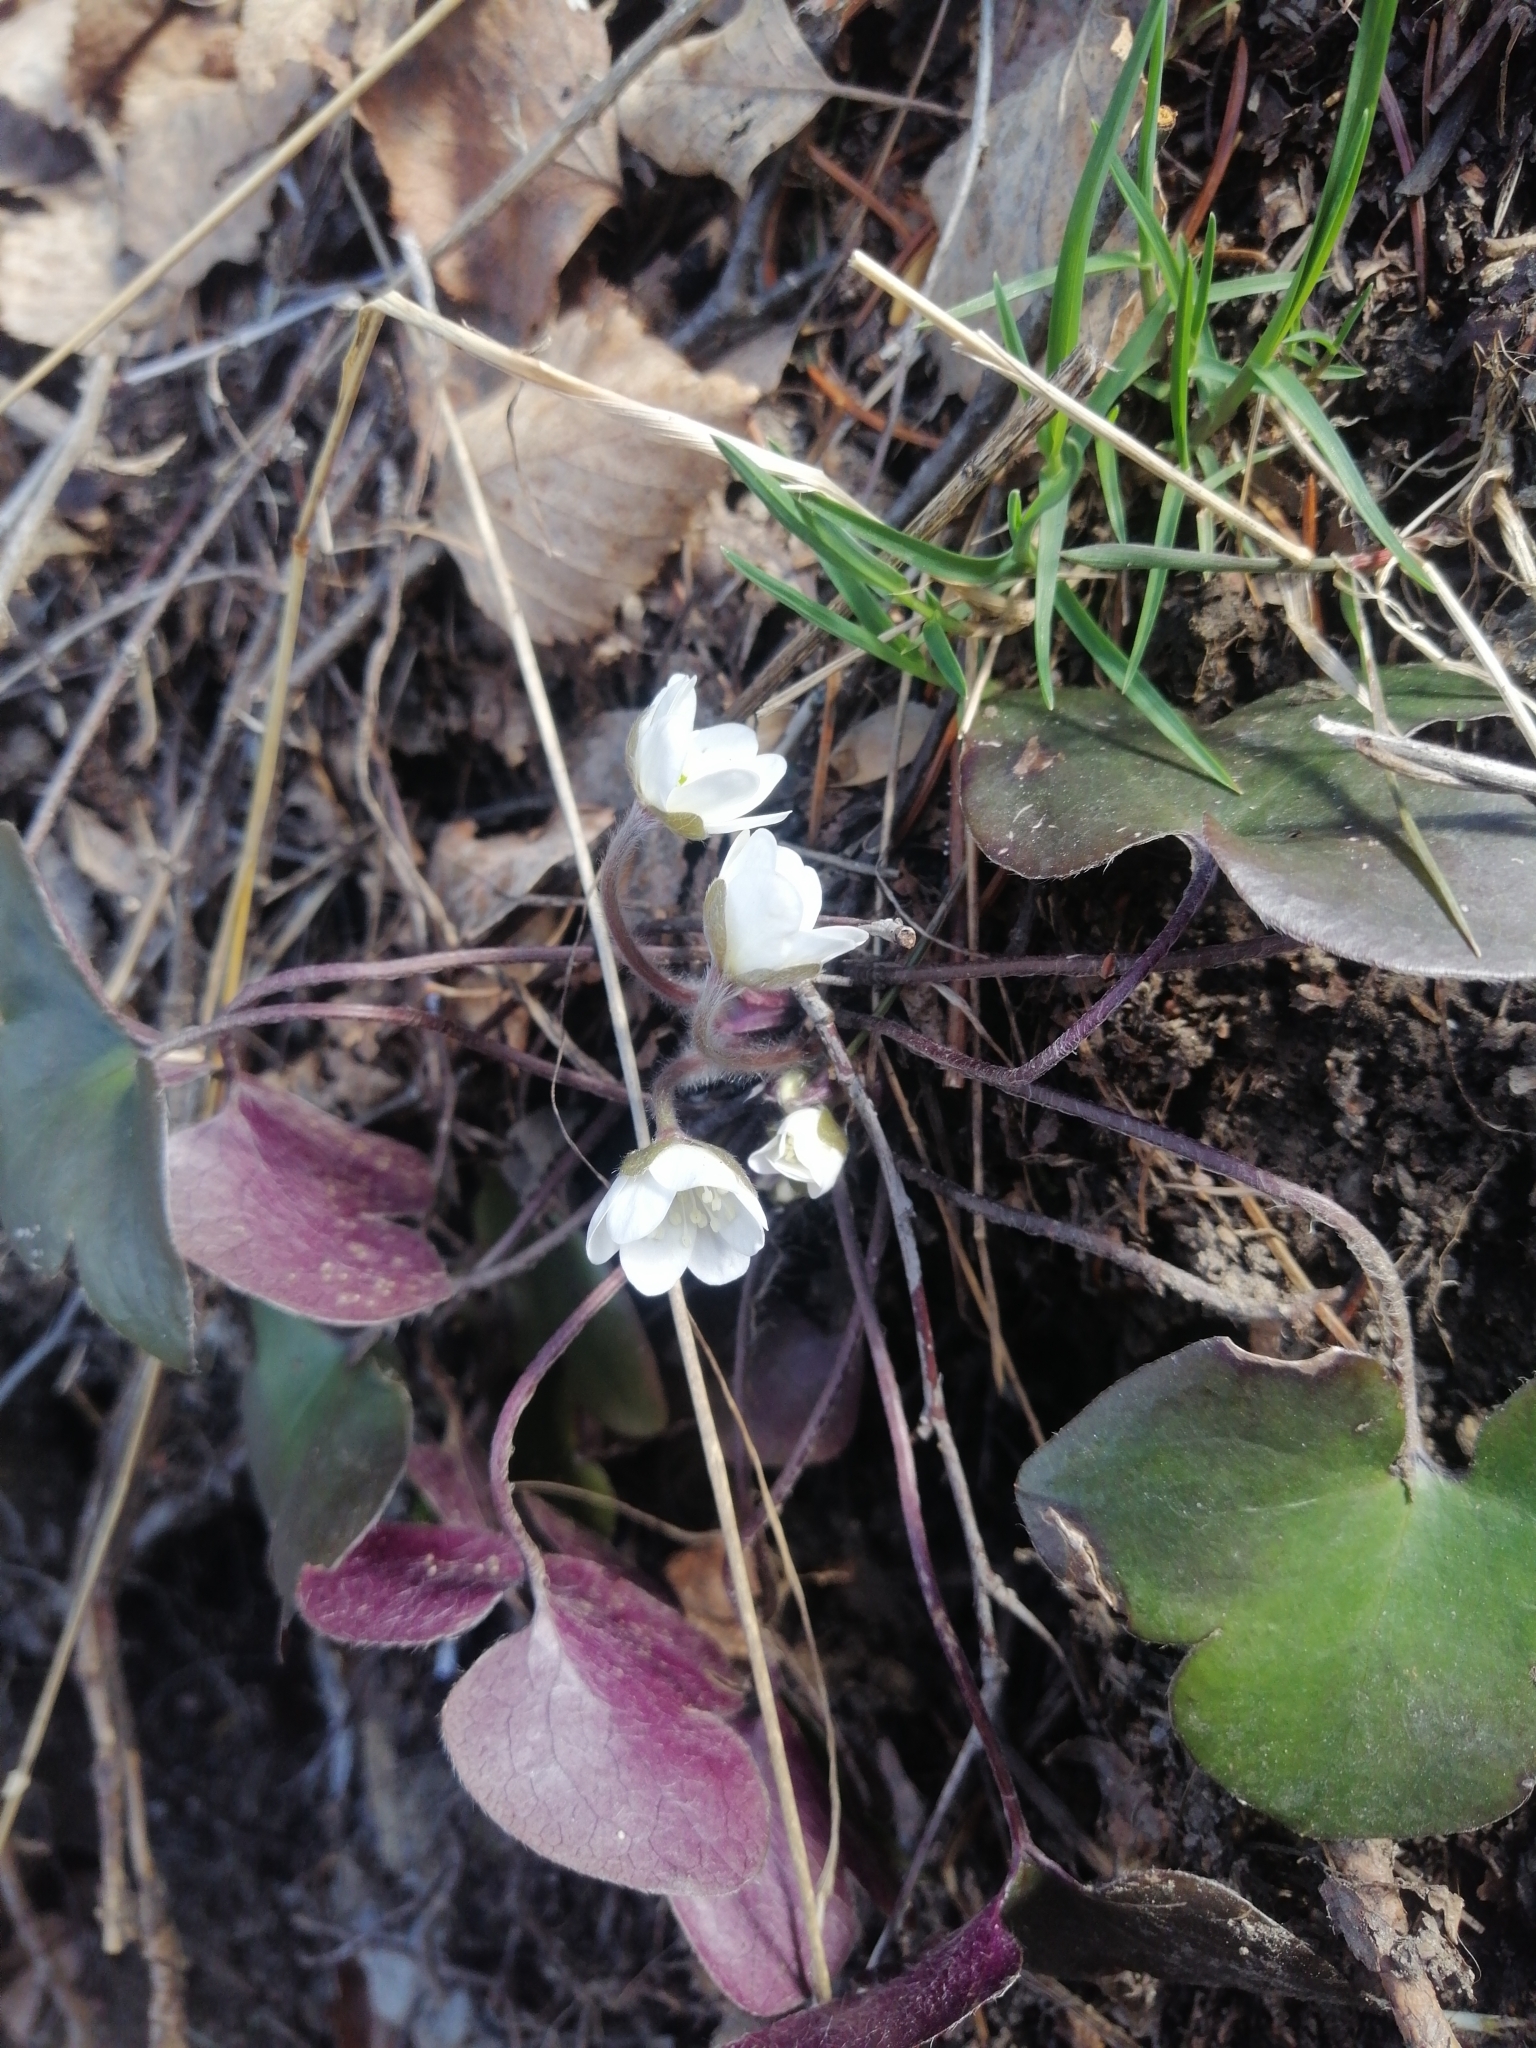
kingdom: Plantae
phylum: Tracheophyta
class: Magnoliopsida
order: Ranunculales
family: Ranunculaceae
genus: Hepatica
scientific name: Hepatica nobilis
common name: Liverleaf
